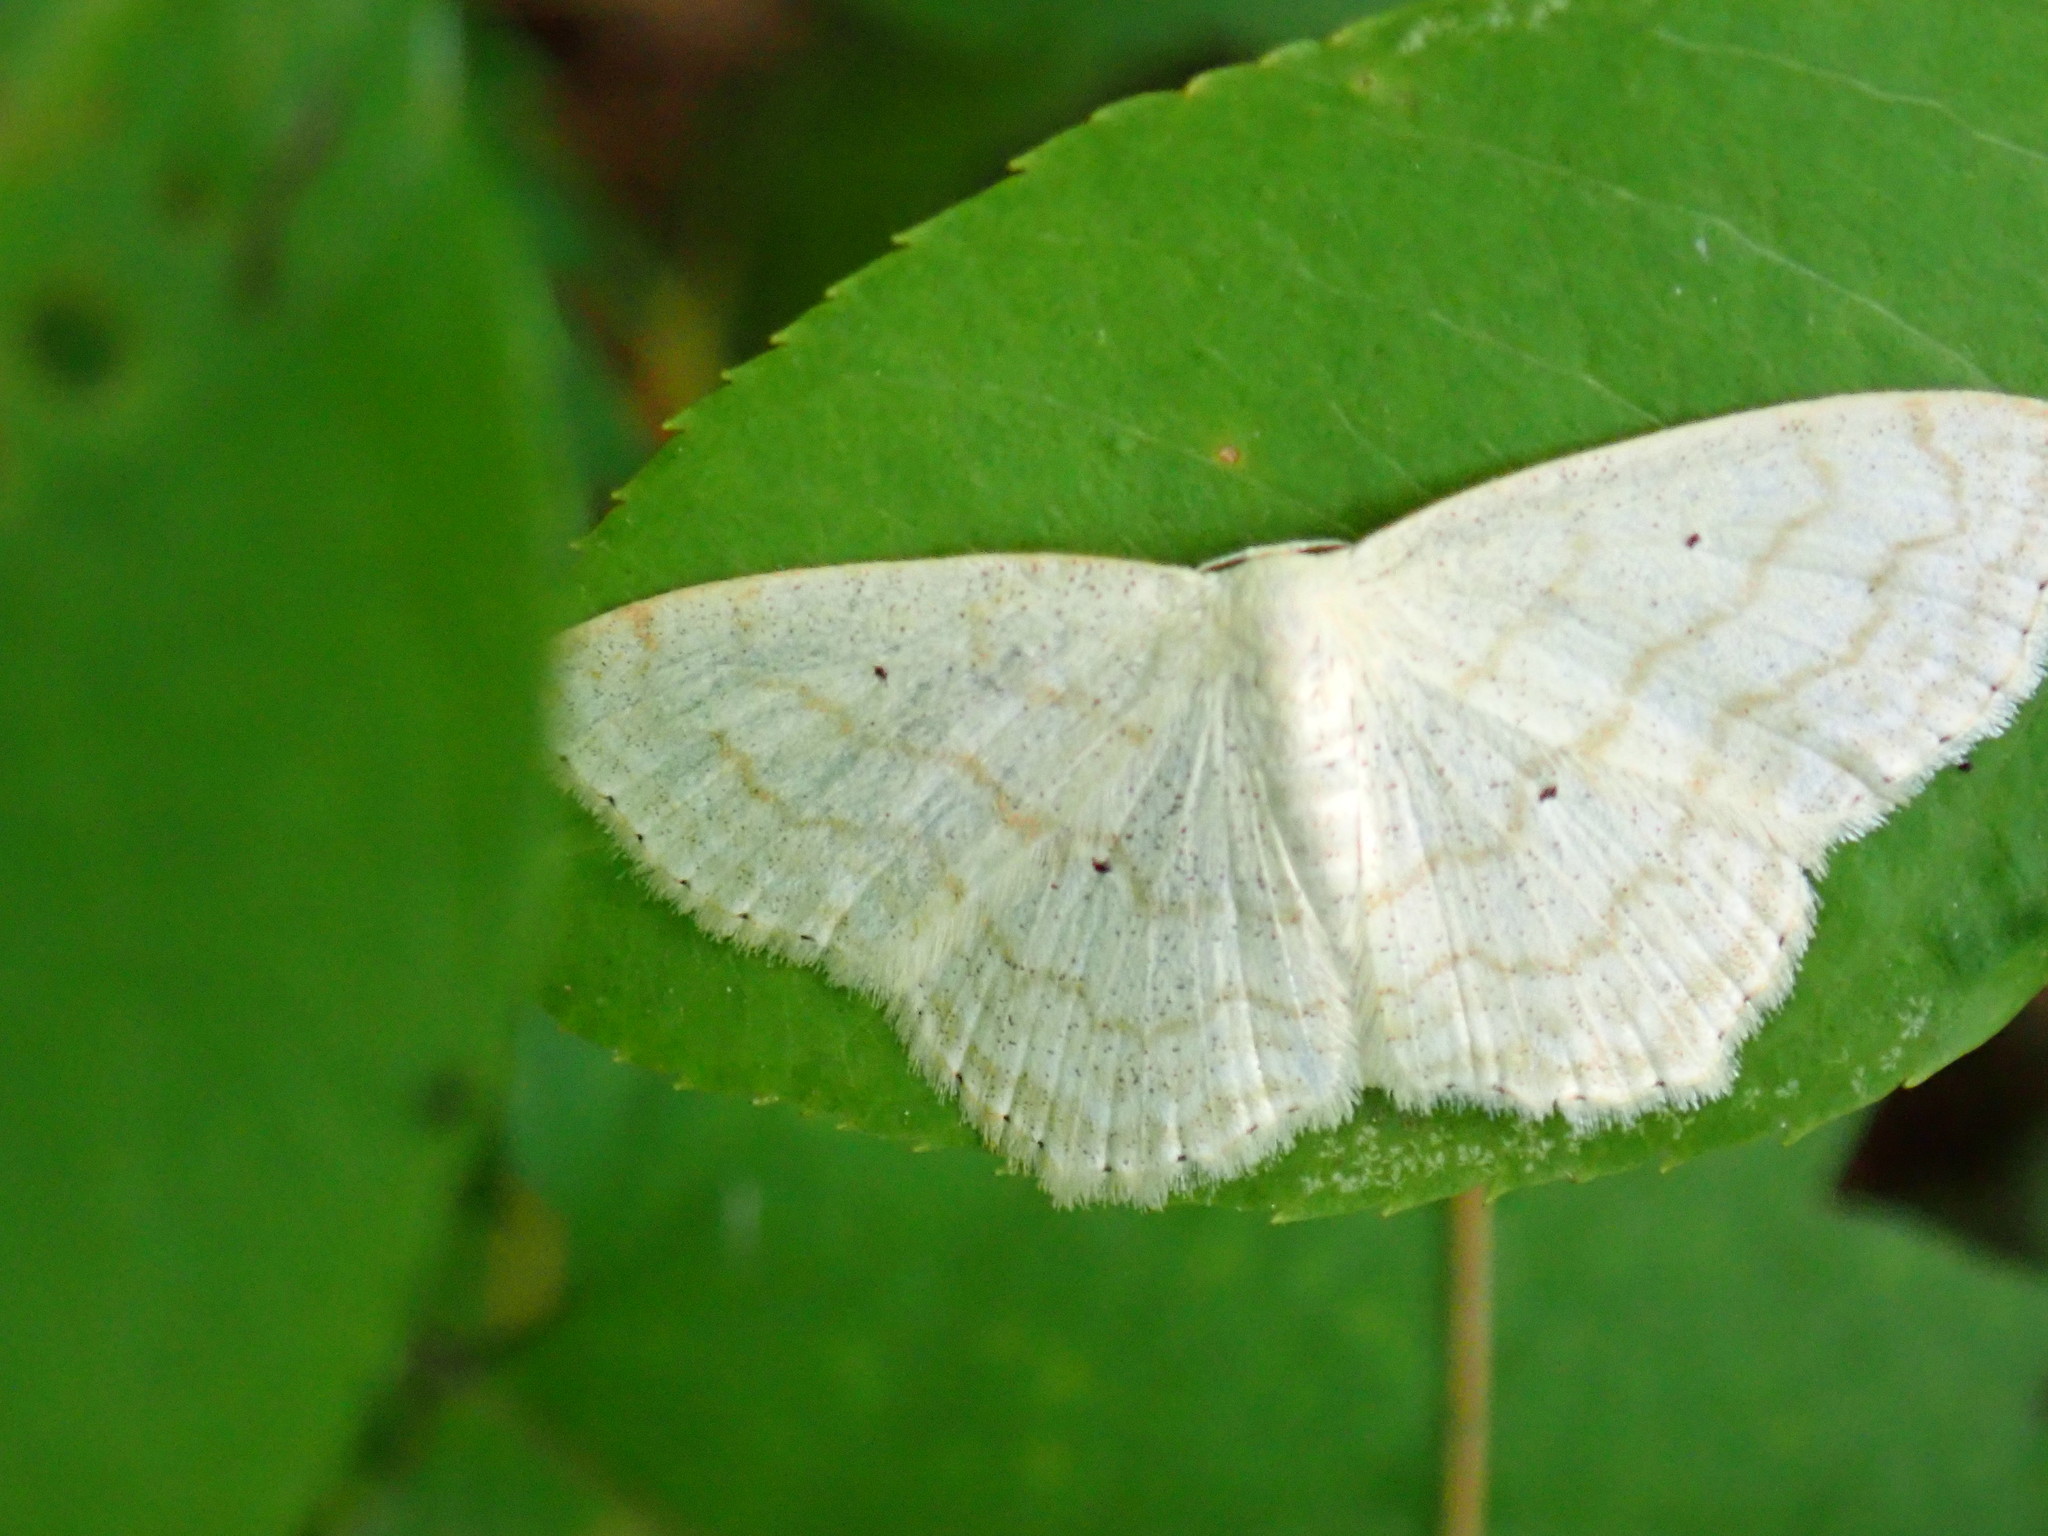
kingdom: Animalia
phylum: Arthropoda
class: Insecta
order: Lepidoptera
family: Geometridae
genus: Scopula
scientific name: Scopula limboundata
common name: Large lace border
